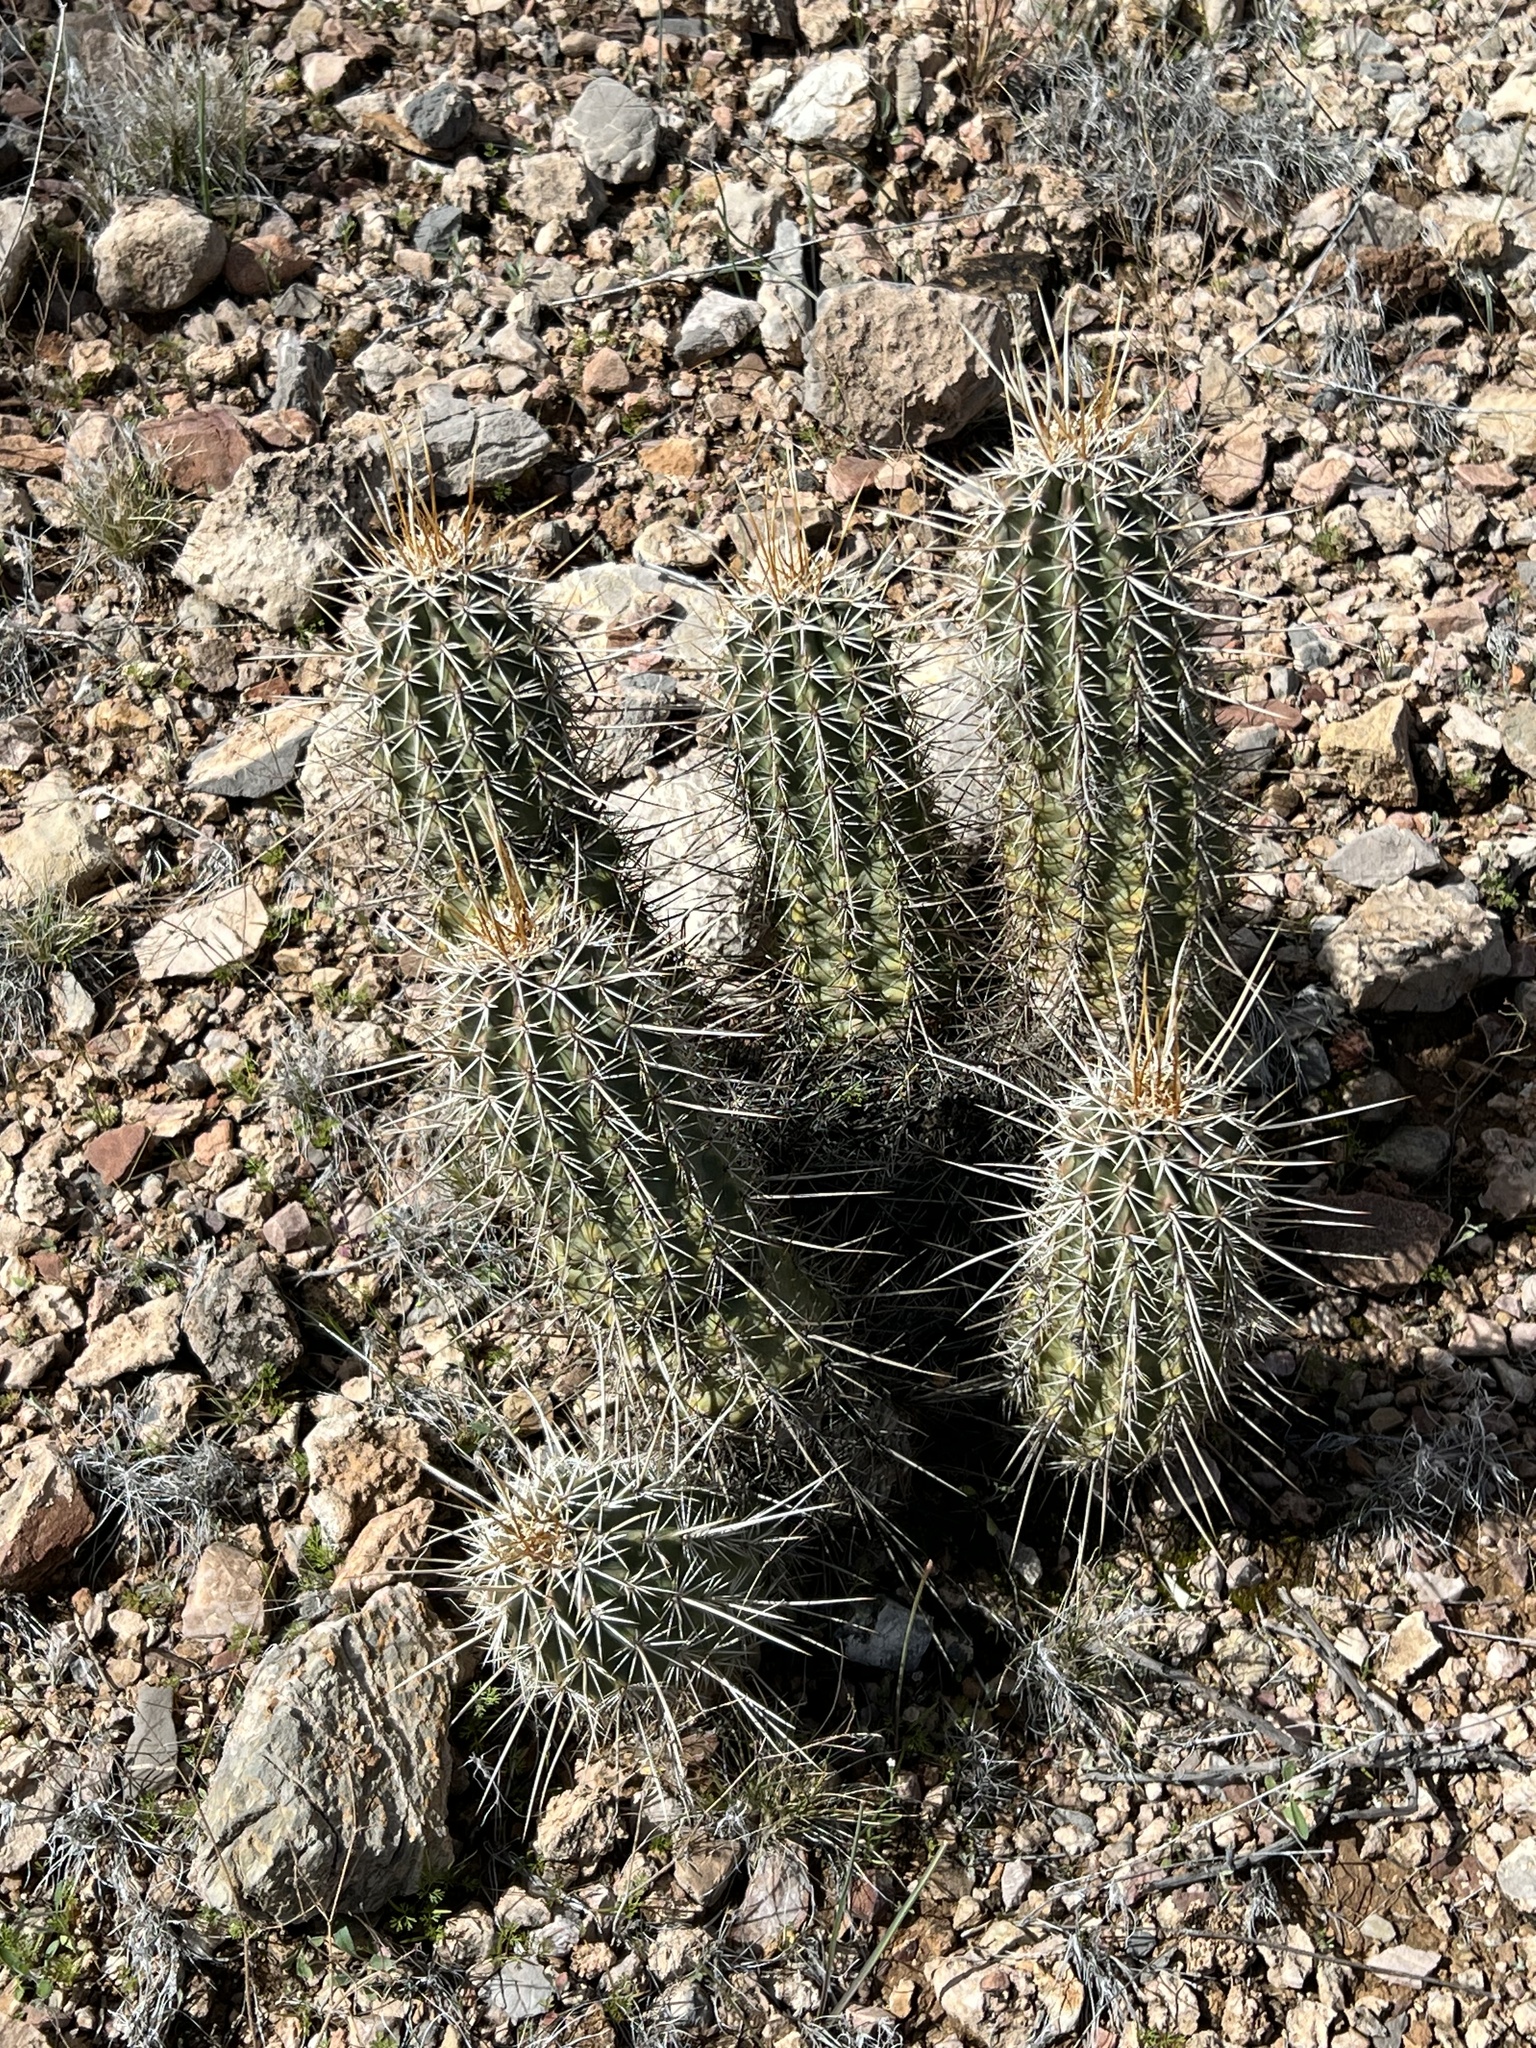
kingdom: Plantae
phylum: Tracheophyta
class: Magnoliopsida
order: Caryophyllales
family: Cactaceae
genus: Echinocereus
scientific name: Echinocereus fasciculatus
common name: Bundle hedgehog
